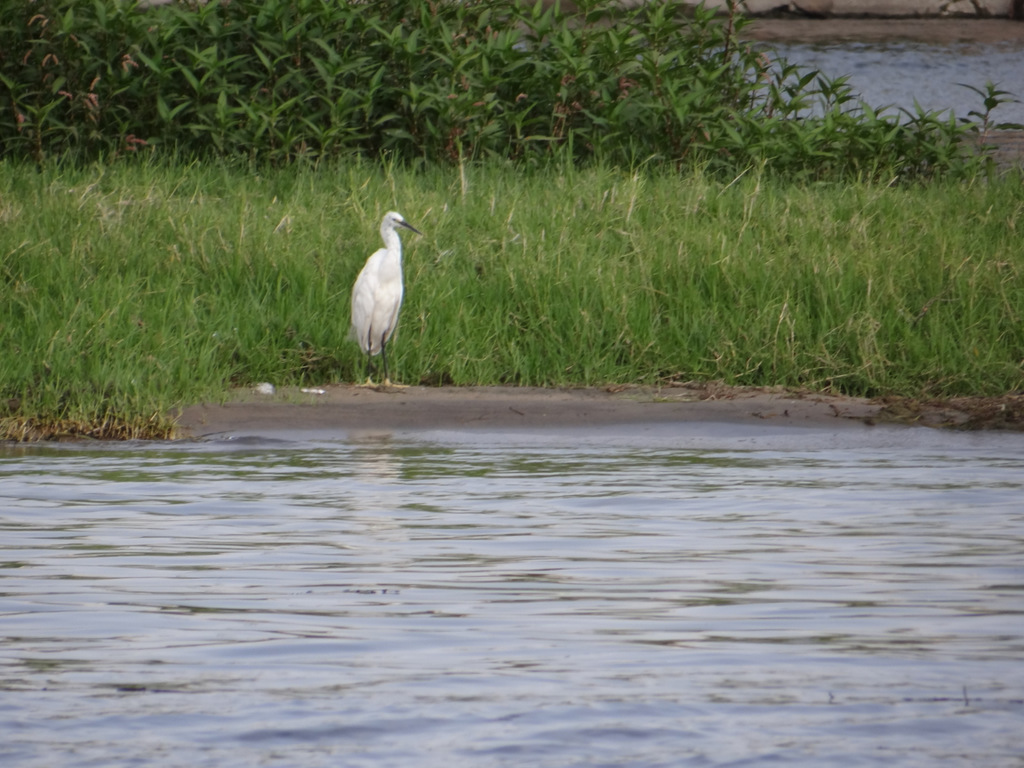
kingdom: Animalia
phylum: Chordata
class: Aves
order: Pelecaniformes
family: Ardeidae
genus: Egretta
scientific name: Egretta garzetta
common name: Little egret
